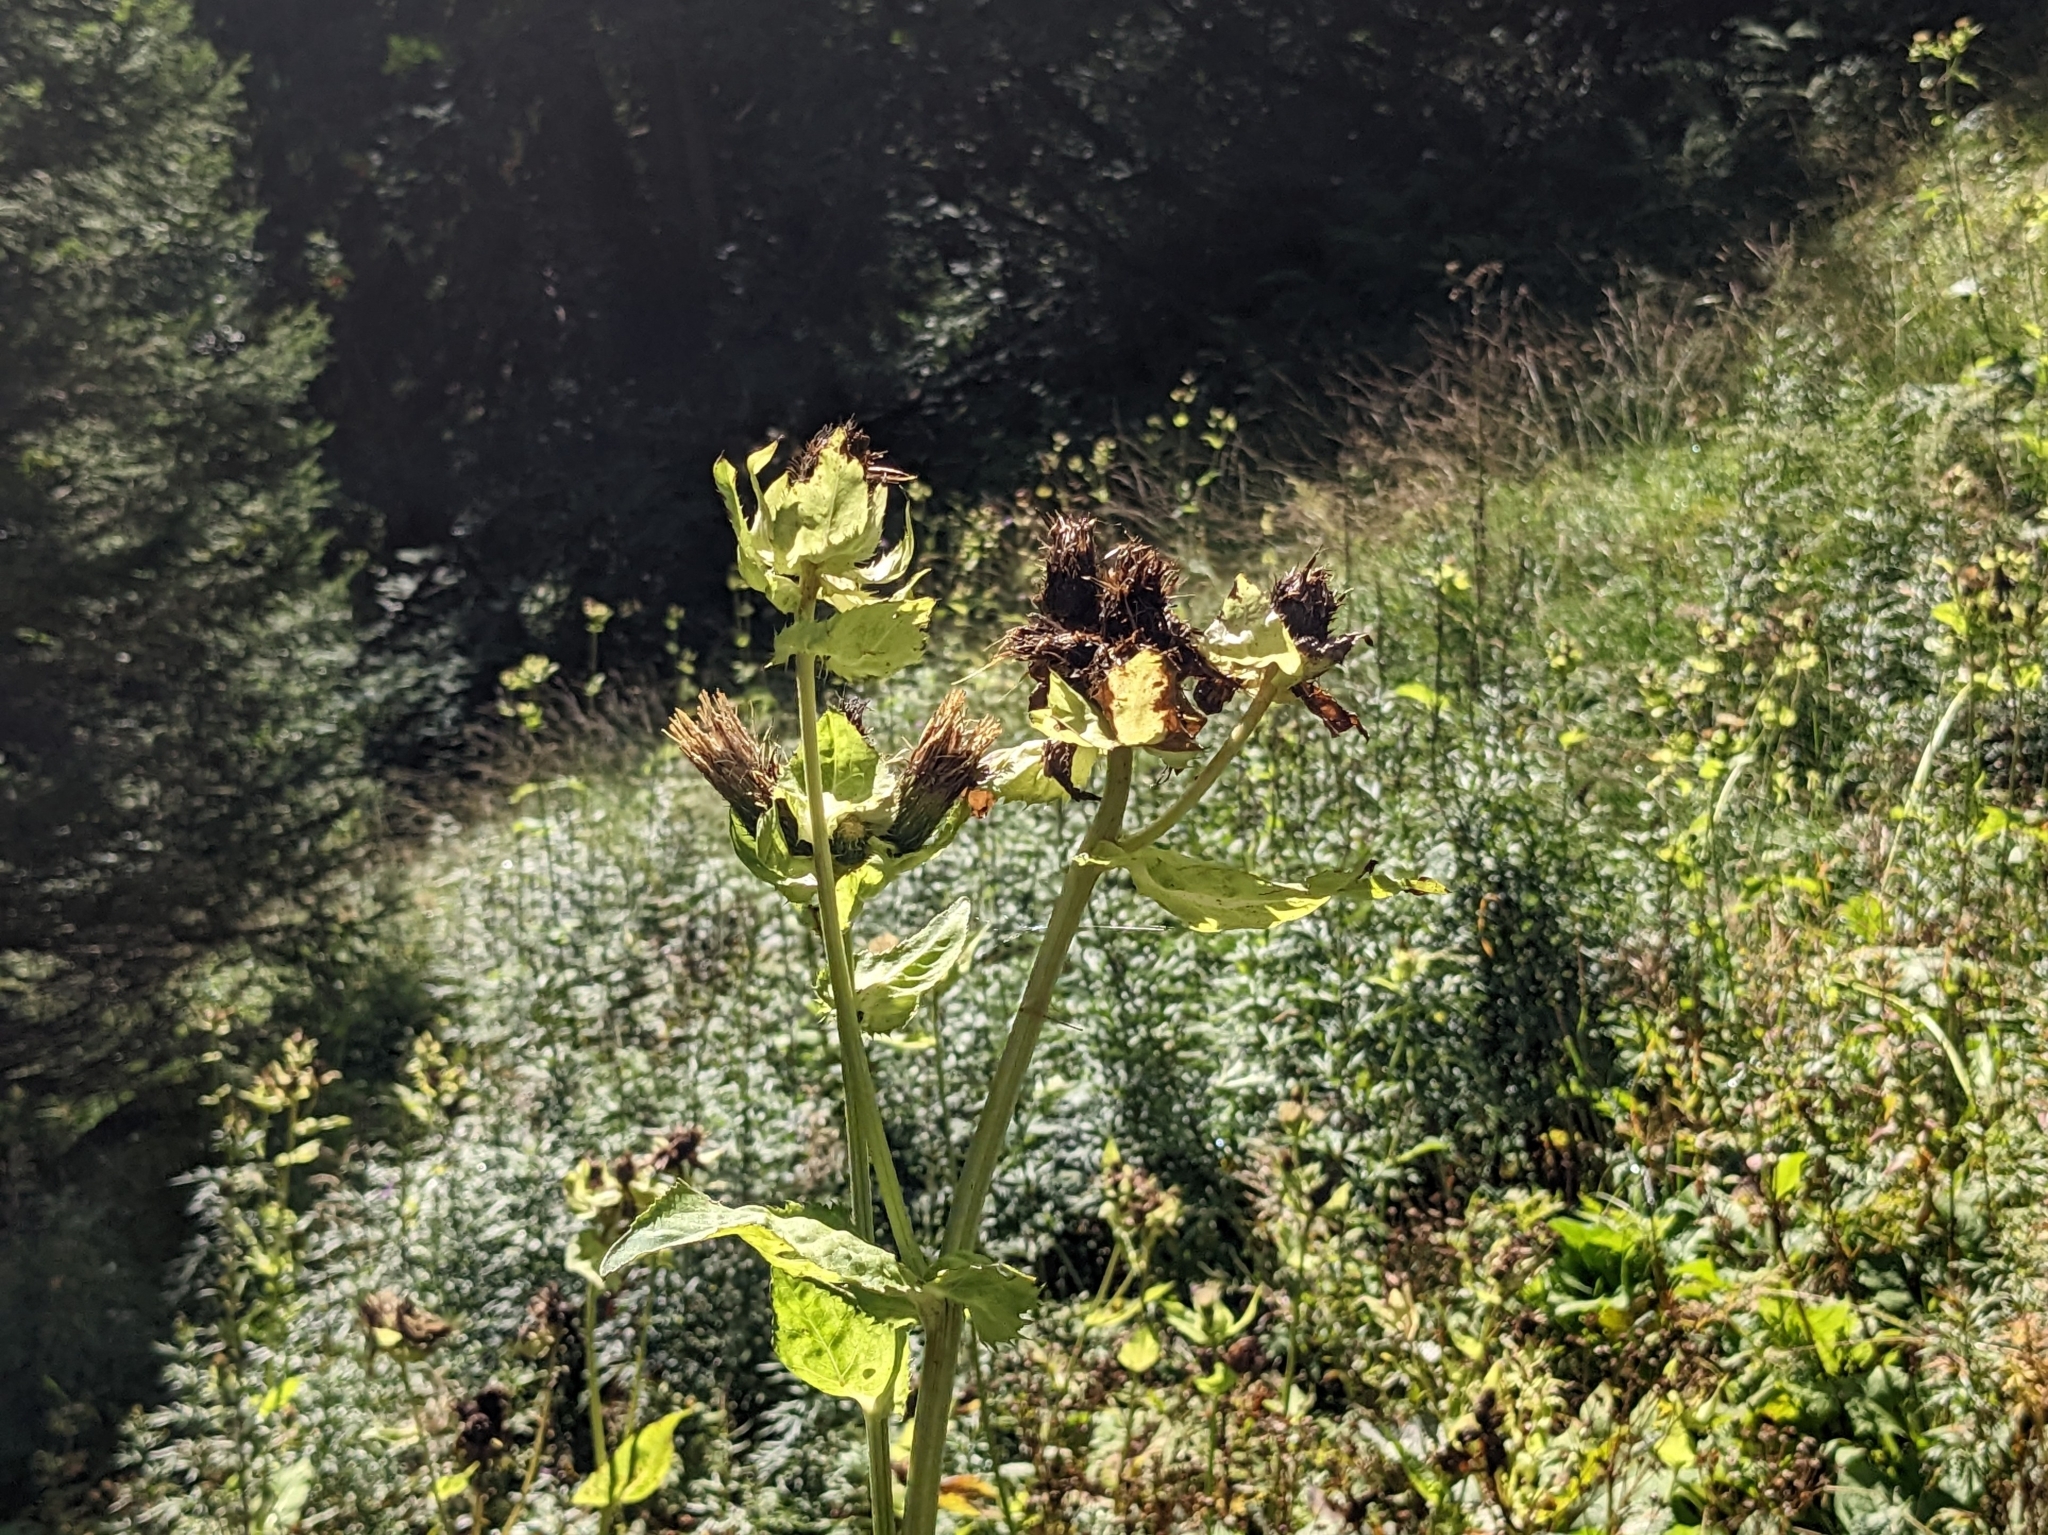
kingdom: Plantae
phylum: Tracheophyta
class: Magnoliopsida
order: Asterales
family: Asteraceae
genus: Cirsium
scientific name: Cirsium oleraceum
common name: Cabbage thistle
